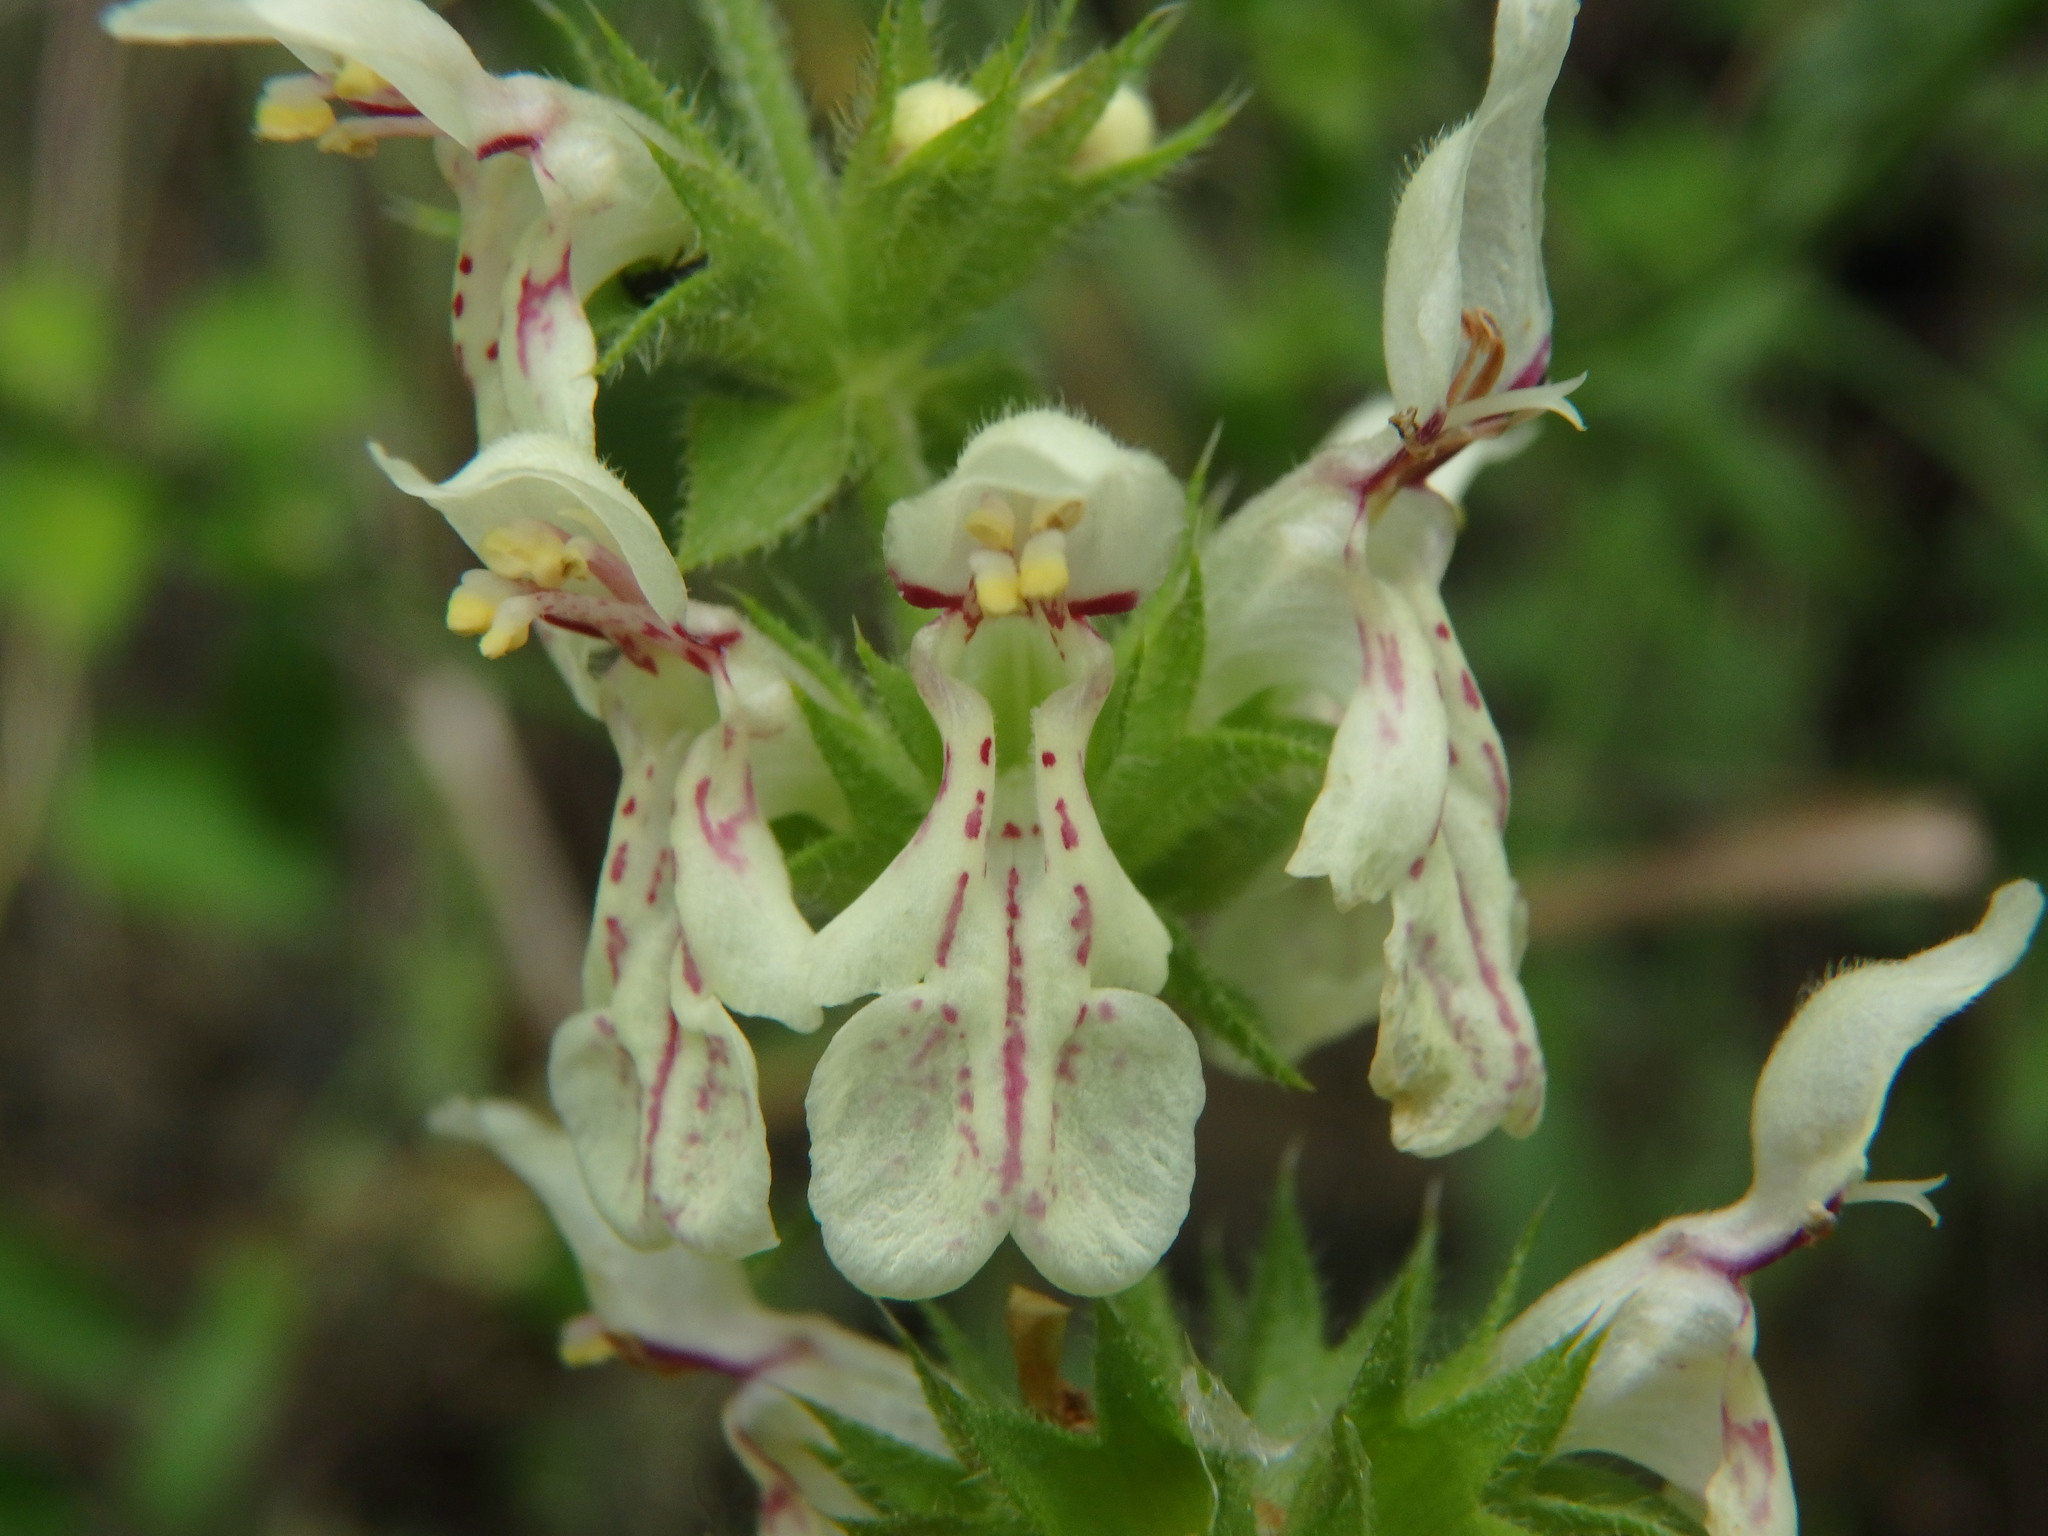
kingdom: Plantae
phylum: Tracheophyta
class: Magnoliopsida
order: Lamiales
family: Lamiaceae
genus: Stachys
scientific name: Stachys recta
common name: Perennial yellow-woundwort
